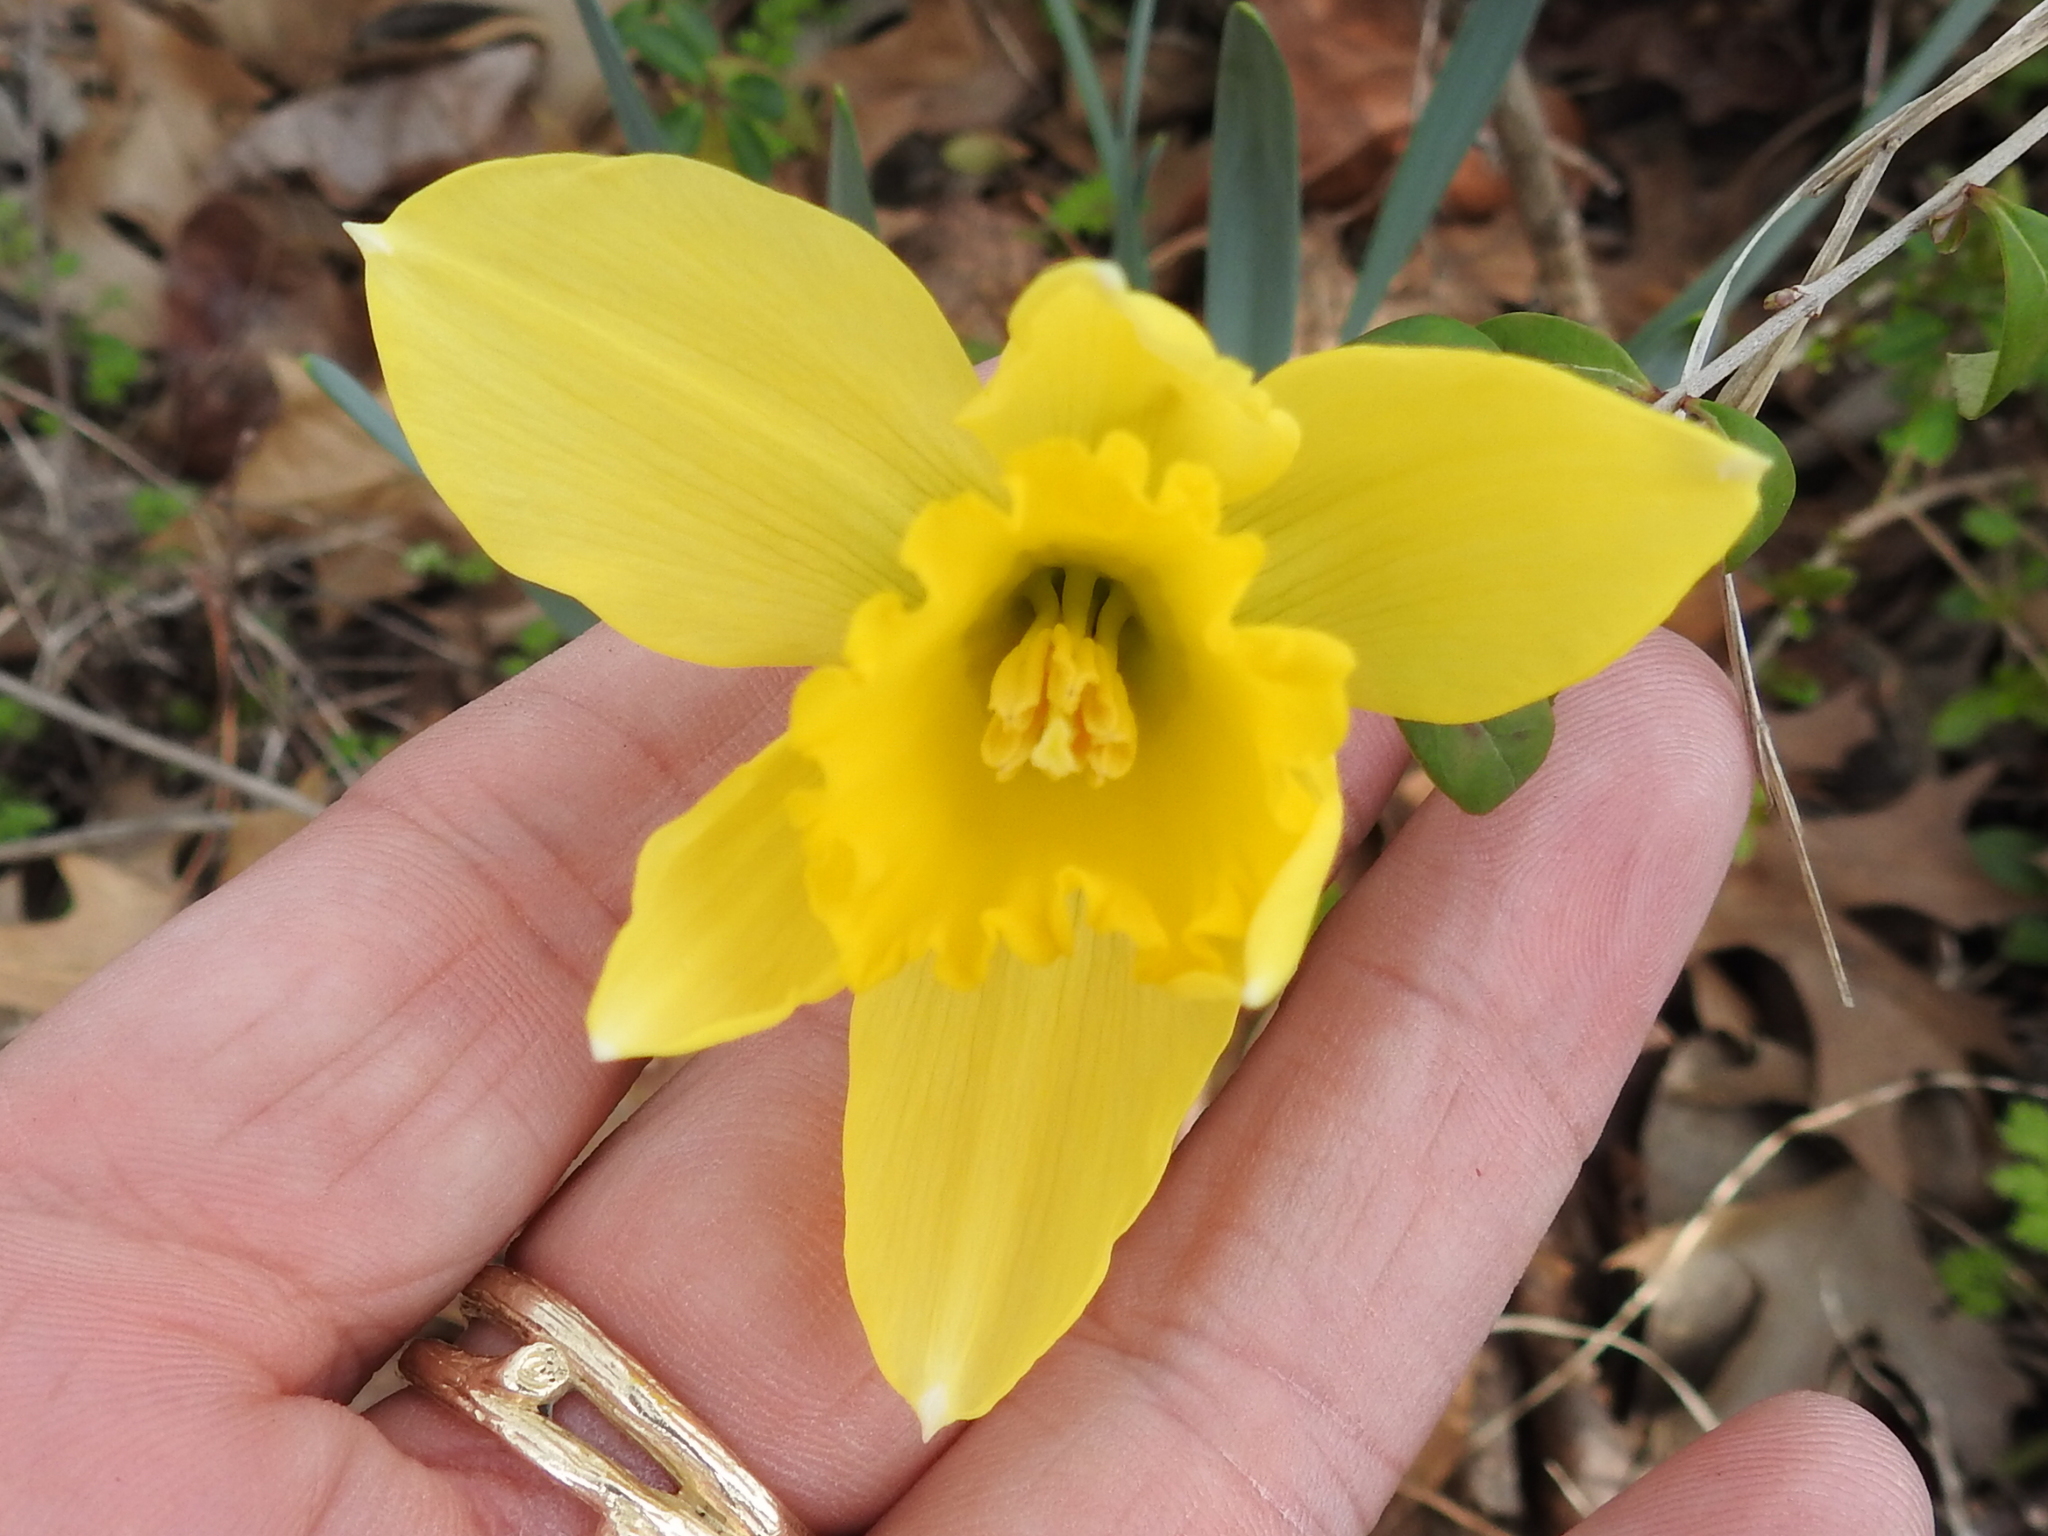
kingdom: Plantae
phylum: Tracheophyta
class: Liliopsida
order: Asparagales
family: Amaryllidaceae
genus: Narcissus
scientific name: Narcissus pseudonarcissus
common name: Daffodil
